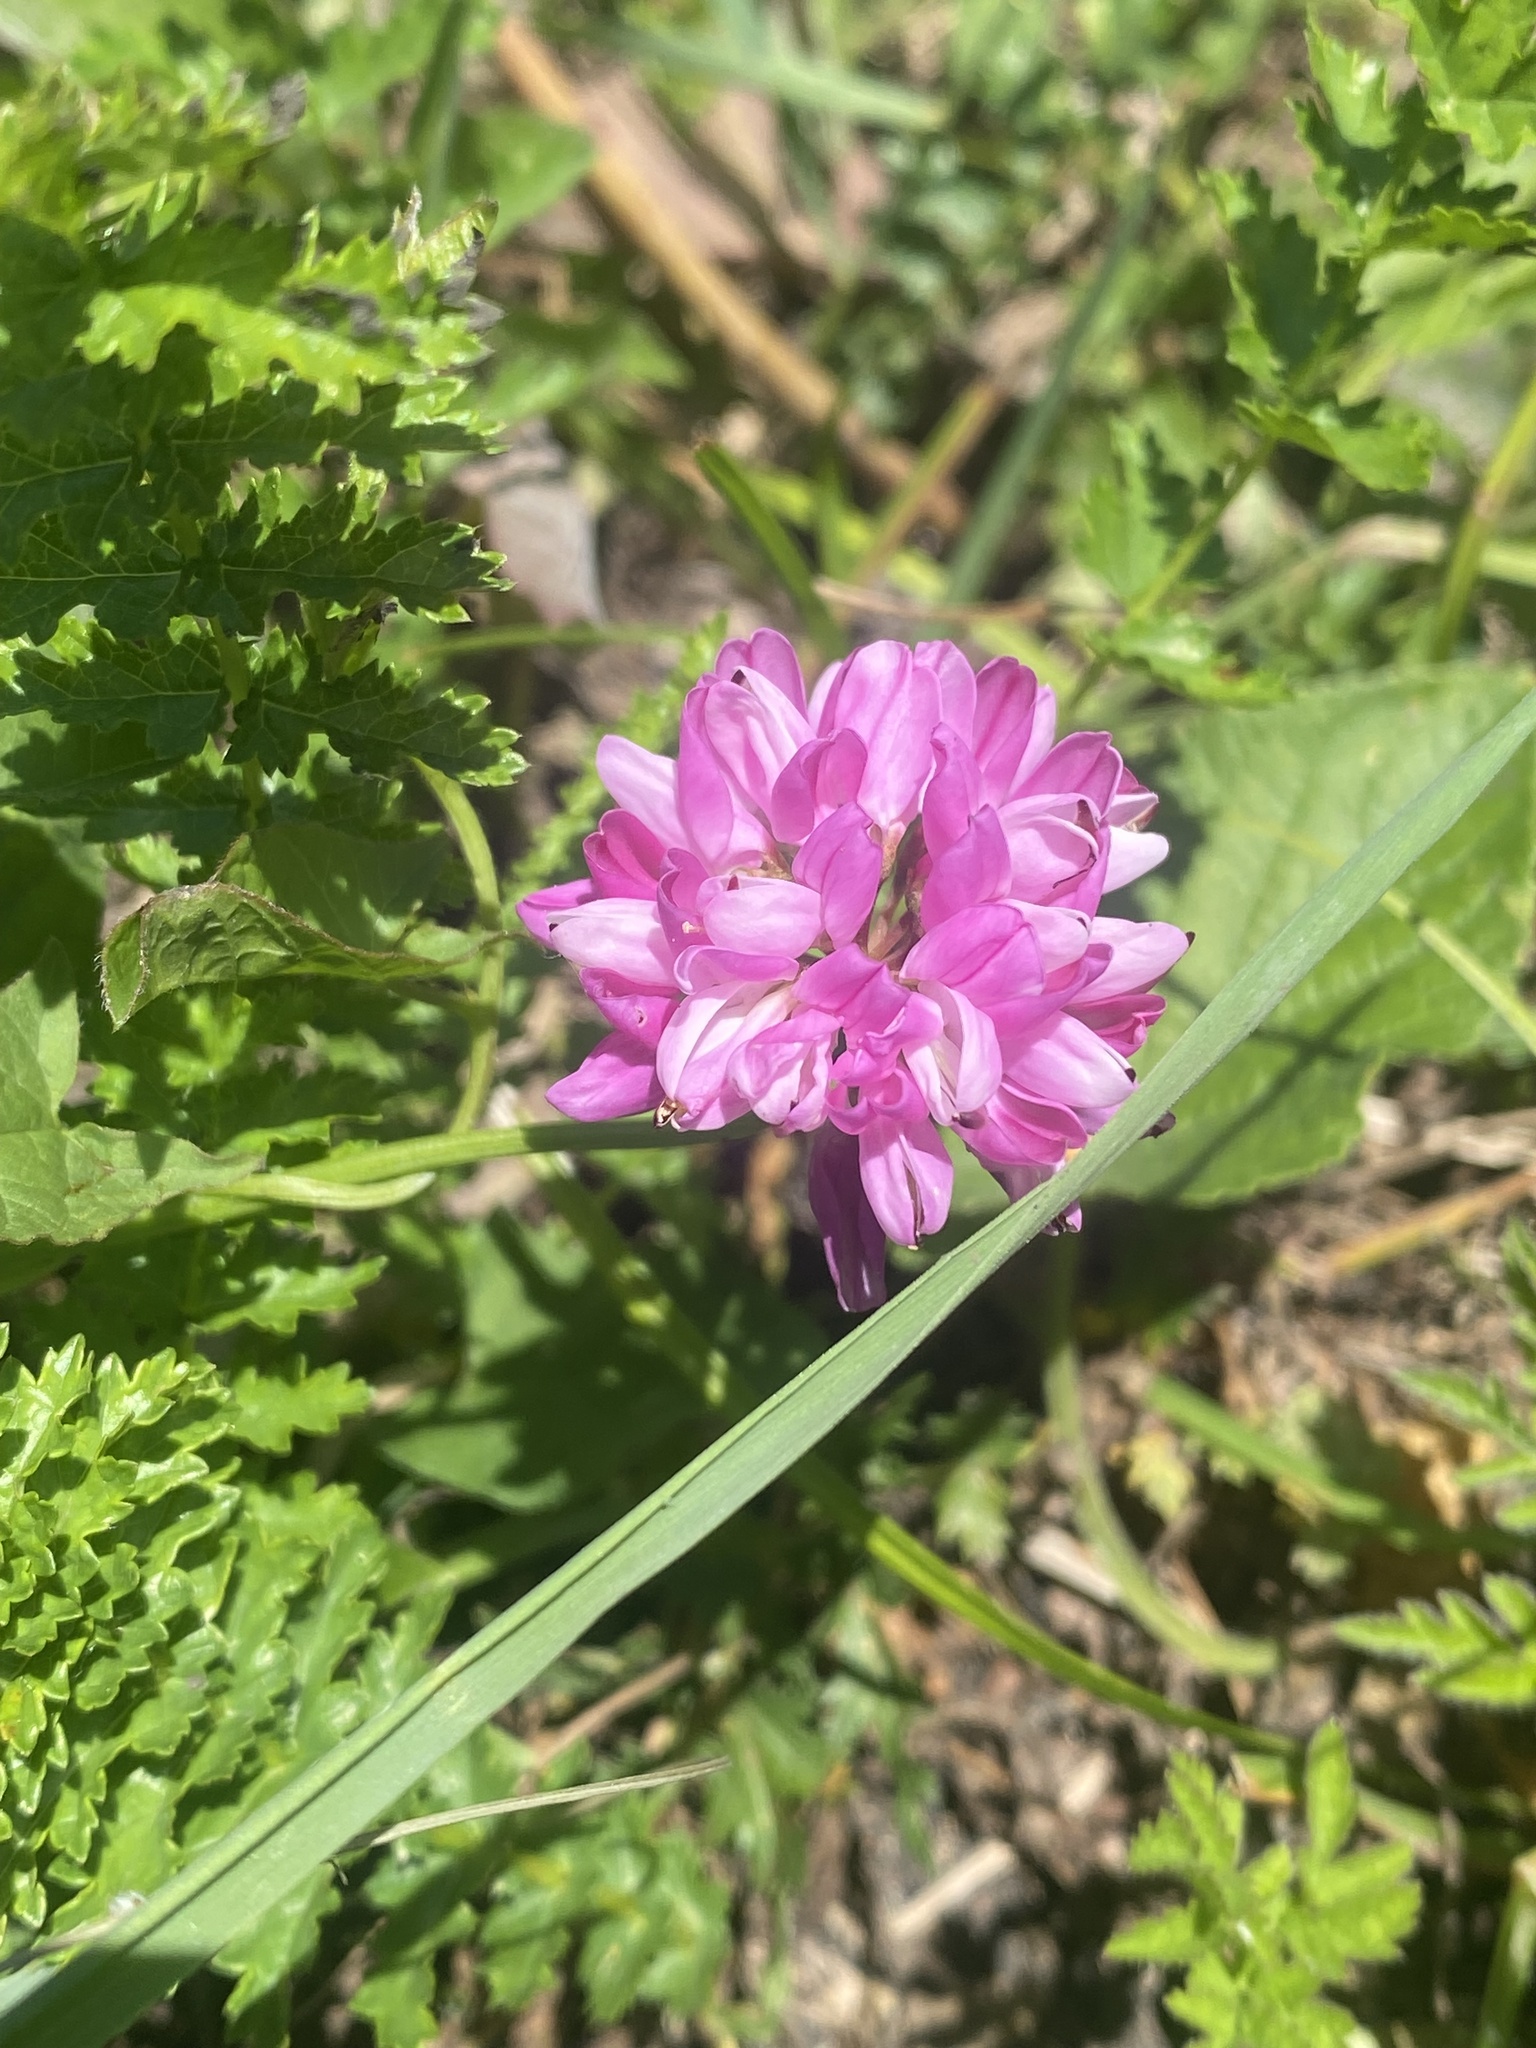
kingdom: Plantae
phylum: Tracheophyta
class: Magnoliopsida
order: Fabales
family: Fabaceae
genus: Coronilla
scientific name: Coronilla varia
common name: Crownvetch
